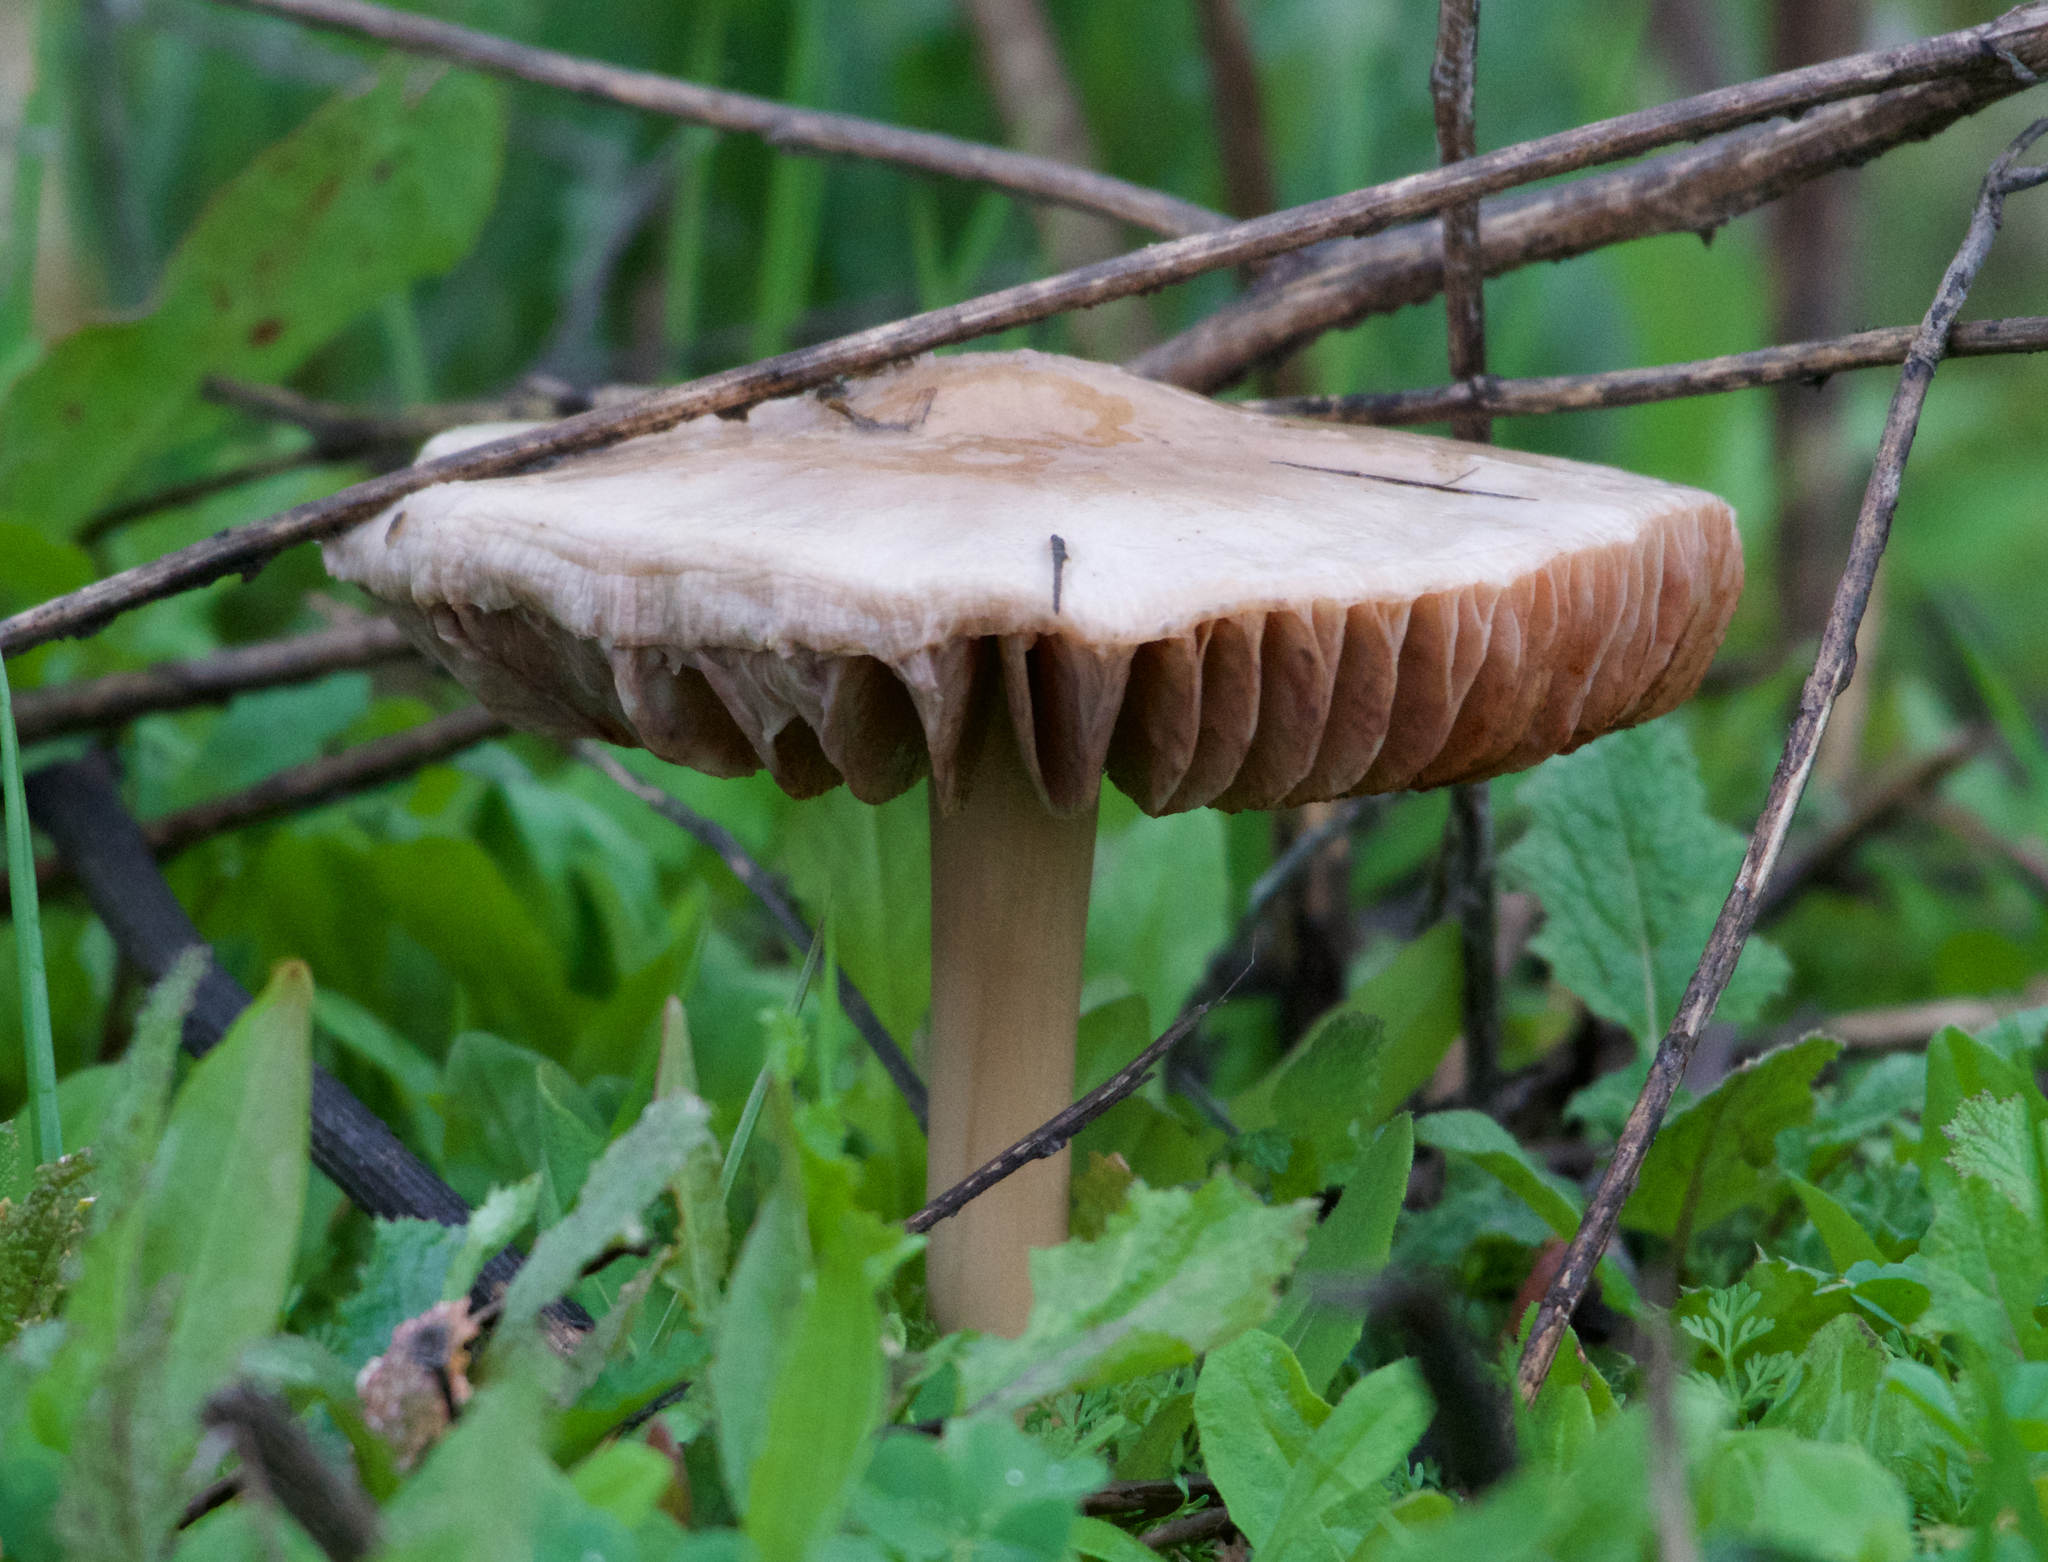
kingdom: Fungi
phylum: Basidiomycota
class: Agaricomycetes
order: Agaricales
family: Pluteaceae
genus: Volvopluteus
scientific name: Volvopluteus gloiocephalus
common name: Stubble rosegill
